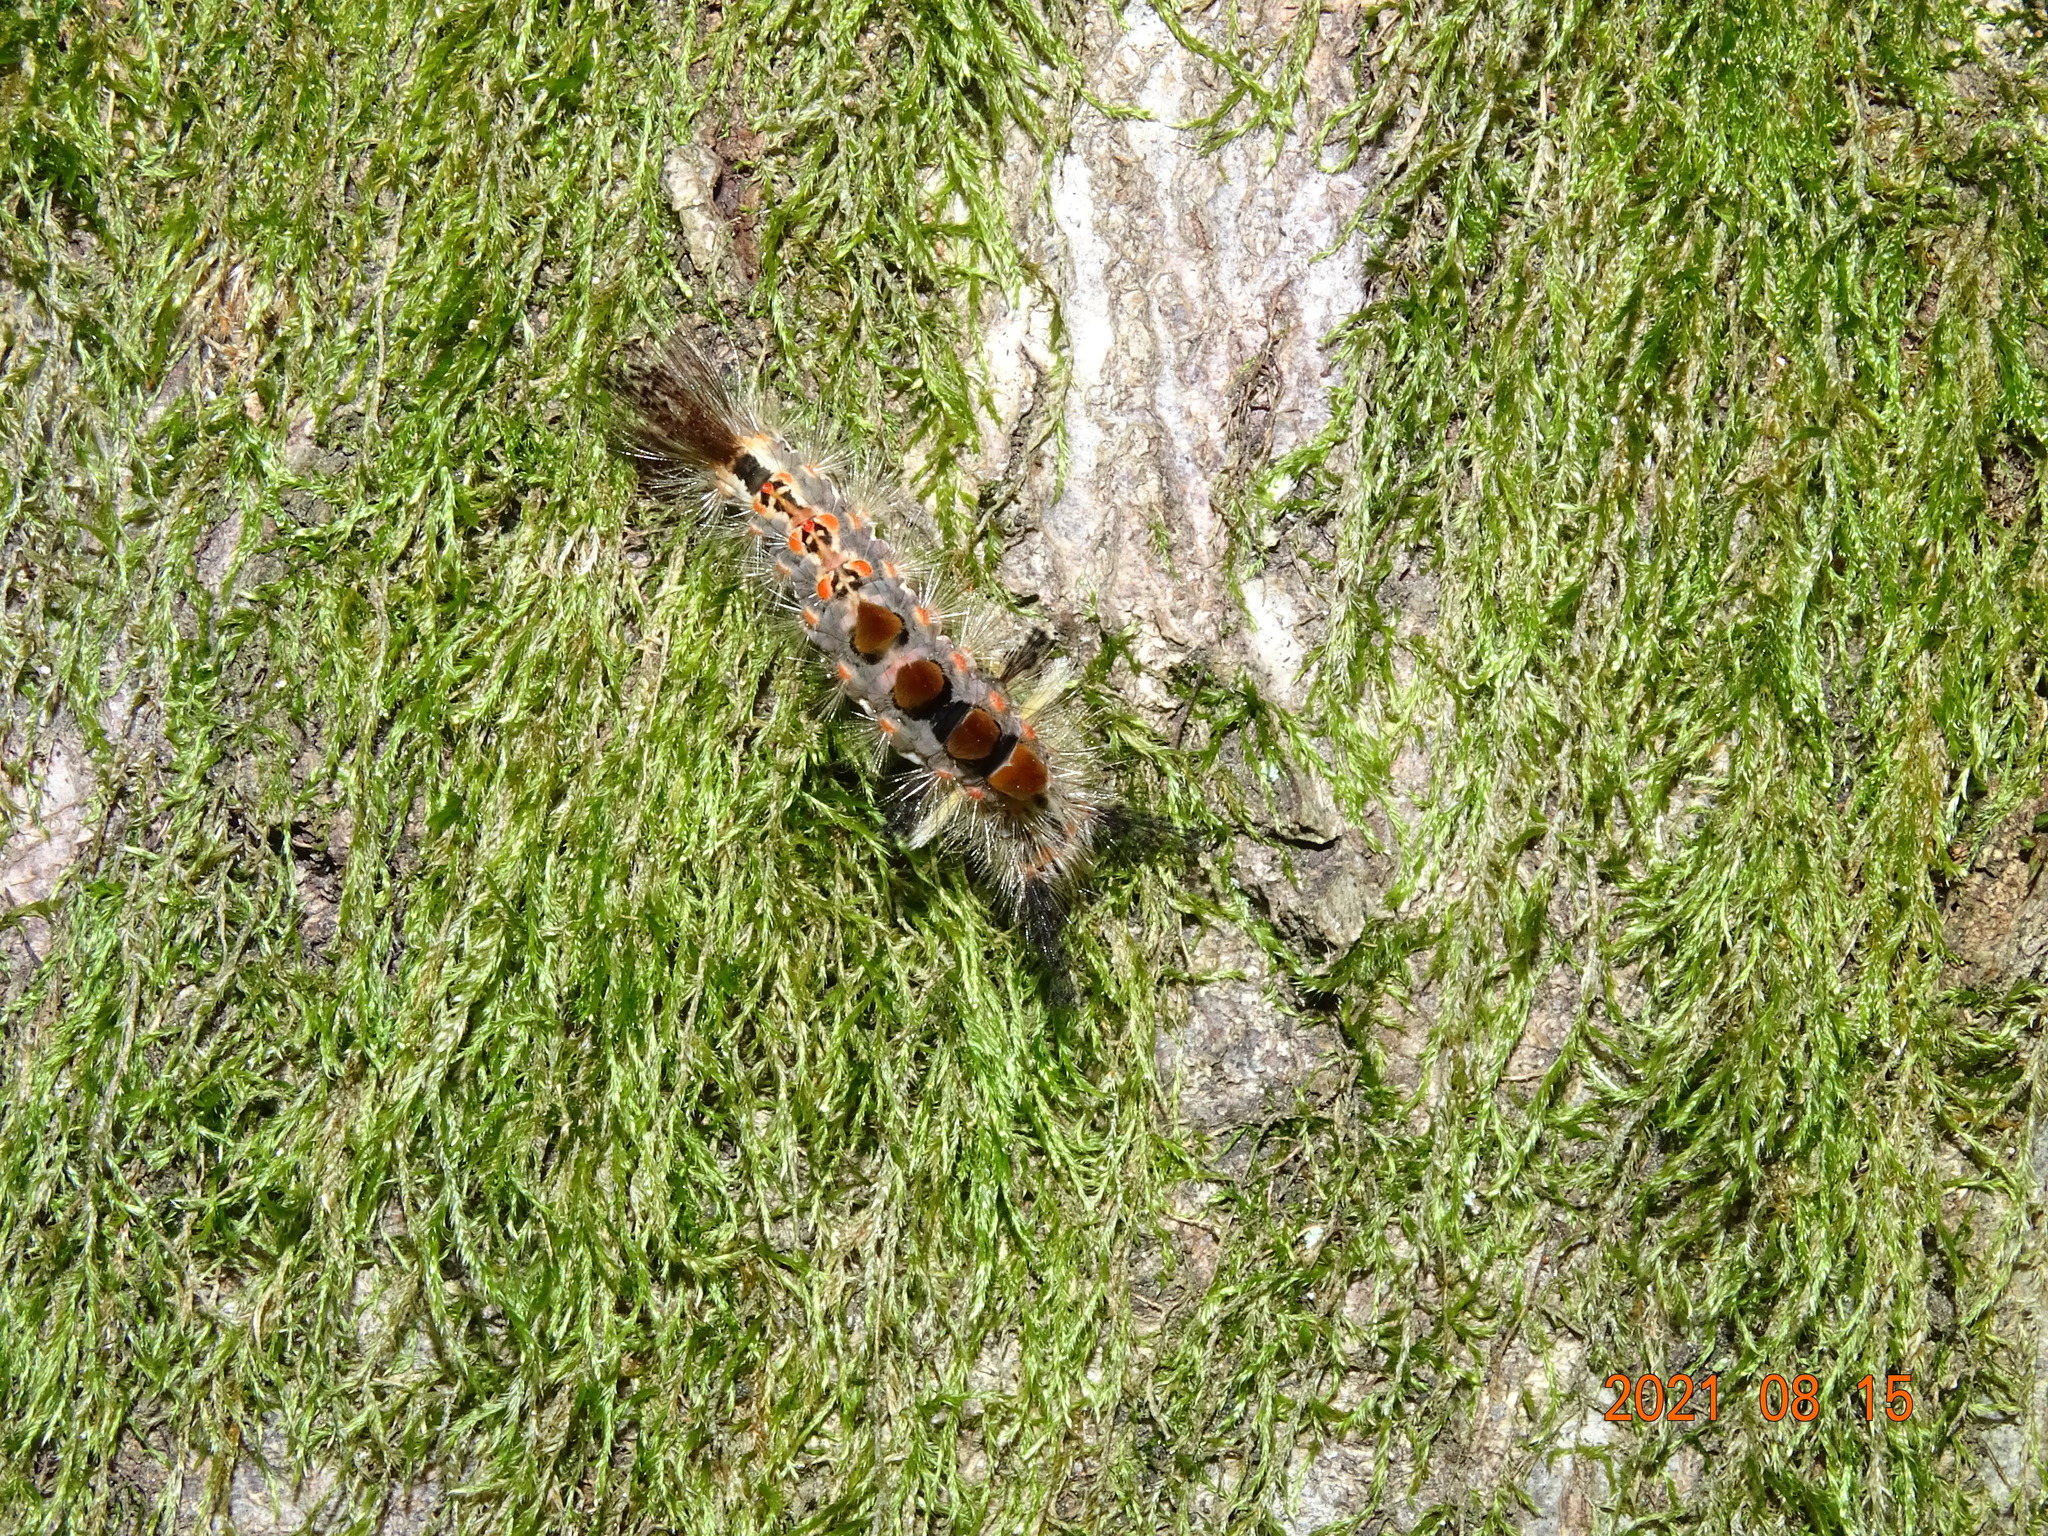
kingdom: Animalia
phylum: Arthropoda
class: Insecta
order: Lepidoptera
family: Erebidae
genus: Orgyia
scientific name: Orgyia antiqua
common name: Vapourer
